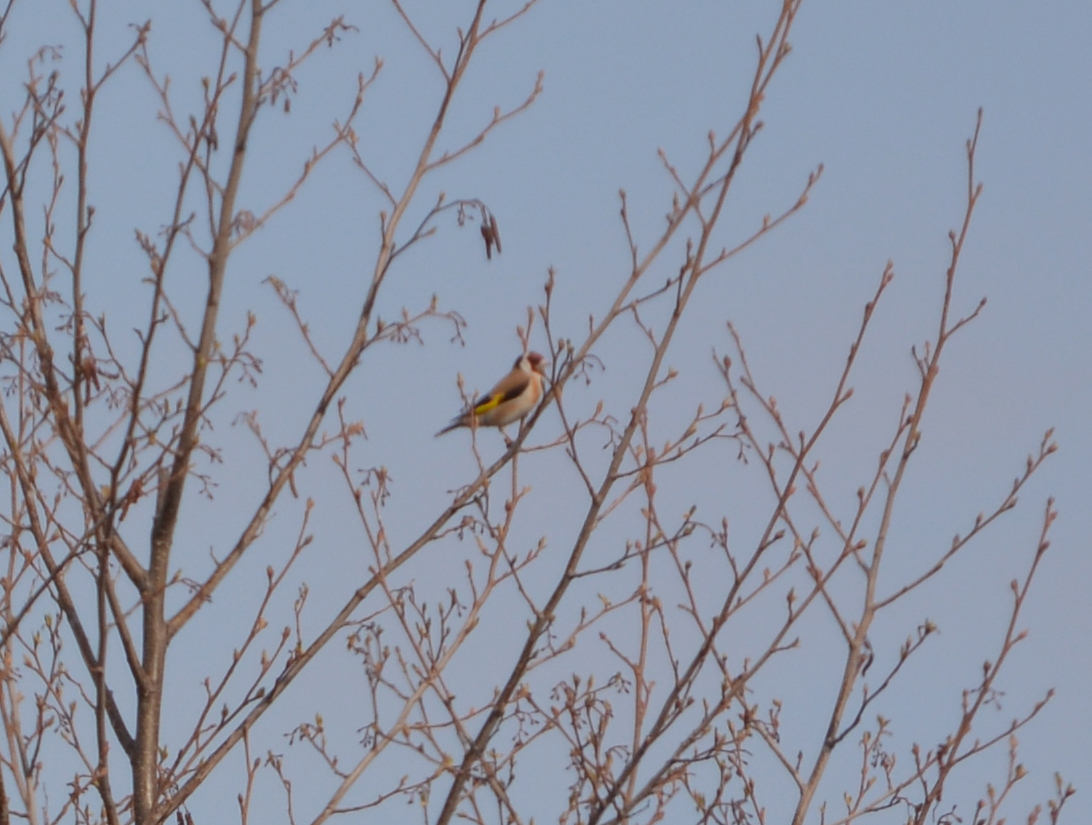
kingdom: Animalia
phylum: Chordata
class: Aves
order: Passeriformes
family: Fringillidae
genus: Carduelis
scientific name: Carduelis carduelis
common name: European goldfinch
